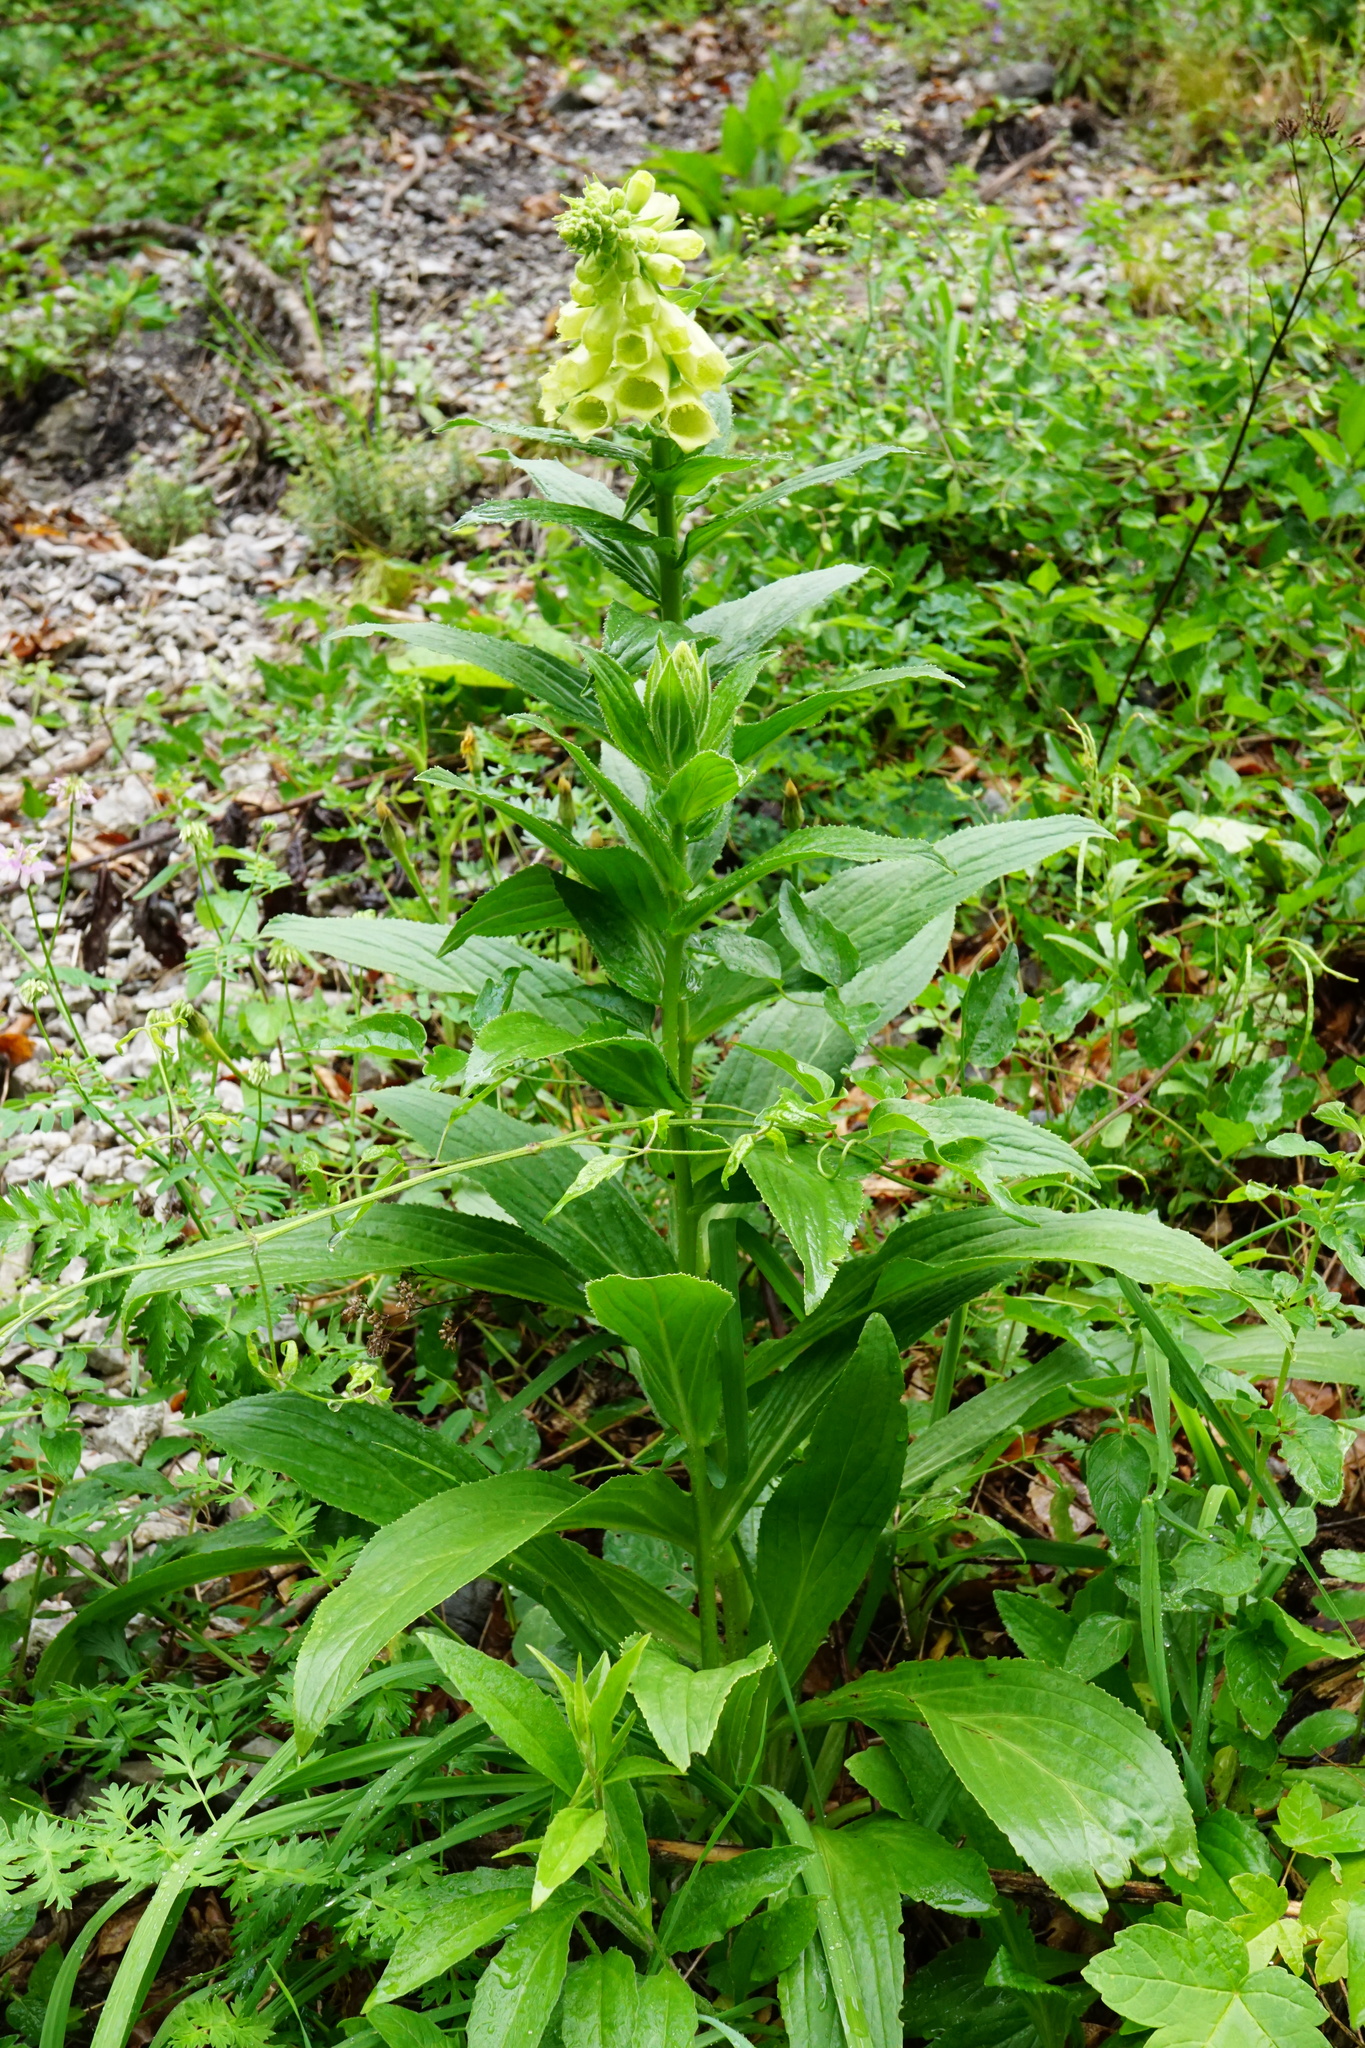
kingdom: Plantae
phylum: Tracheophyta
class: Magnoliopsida
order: Lamiales
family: Plantaginaceae
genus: Digitalis
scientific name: Digitalis grandiflora
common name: Yellow foxglove
